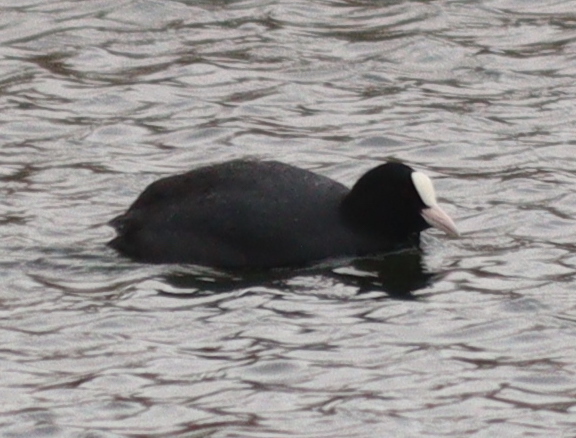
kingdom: Animalia
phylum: Chordata
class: Aves
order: Gruiformes
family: Rallidae
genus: Fulica
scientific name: Fulica atra
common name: Eurasian coot
